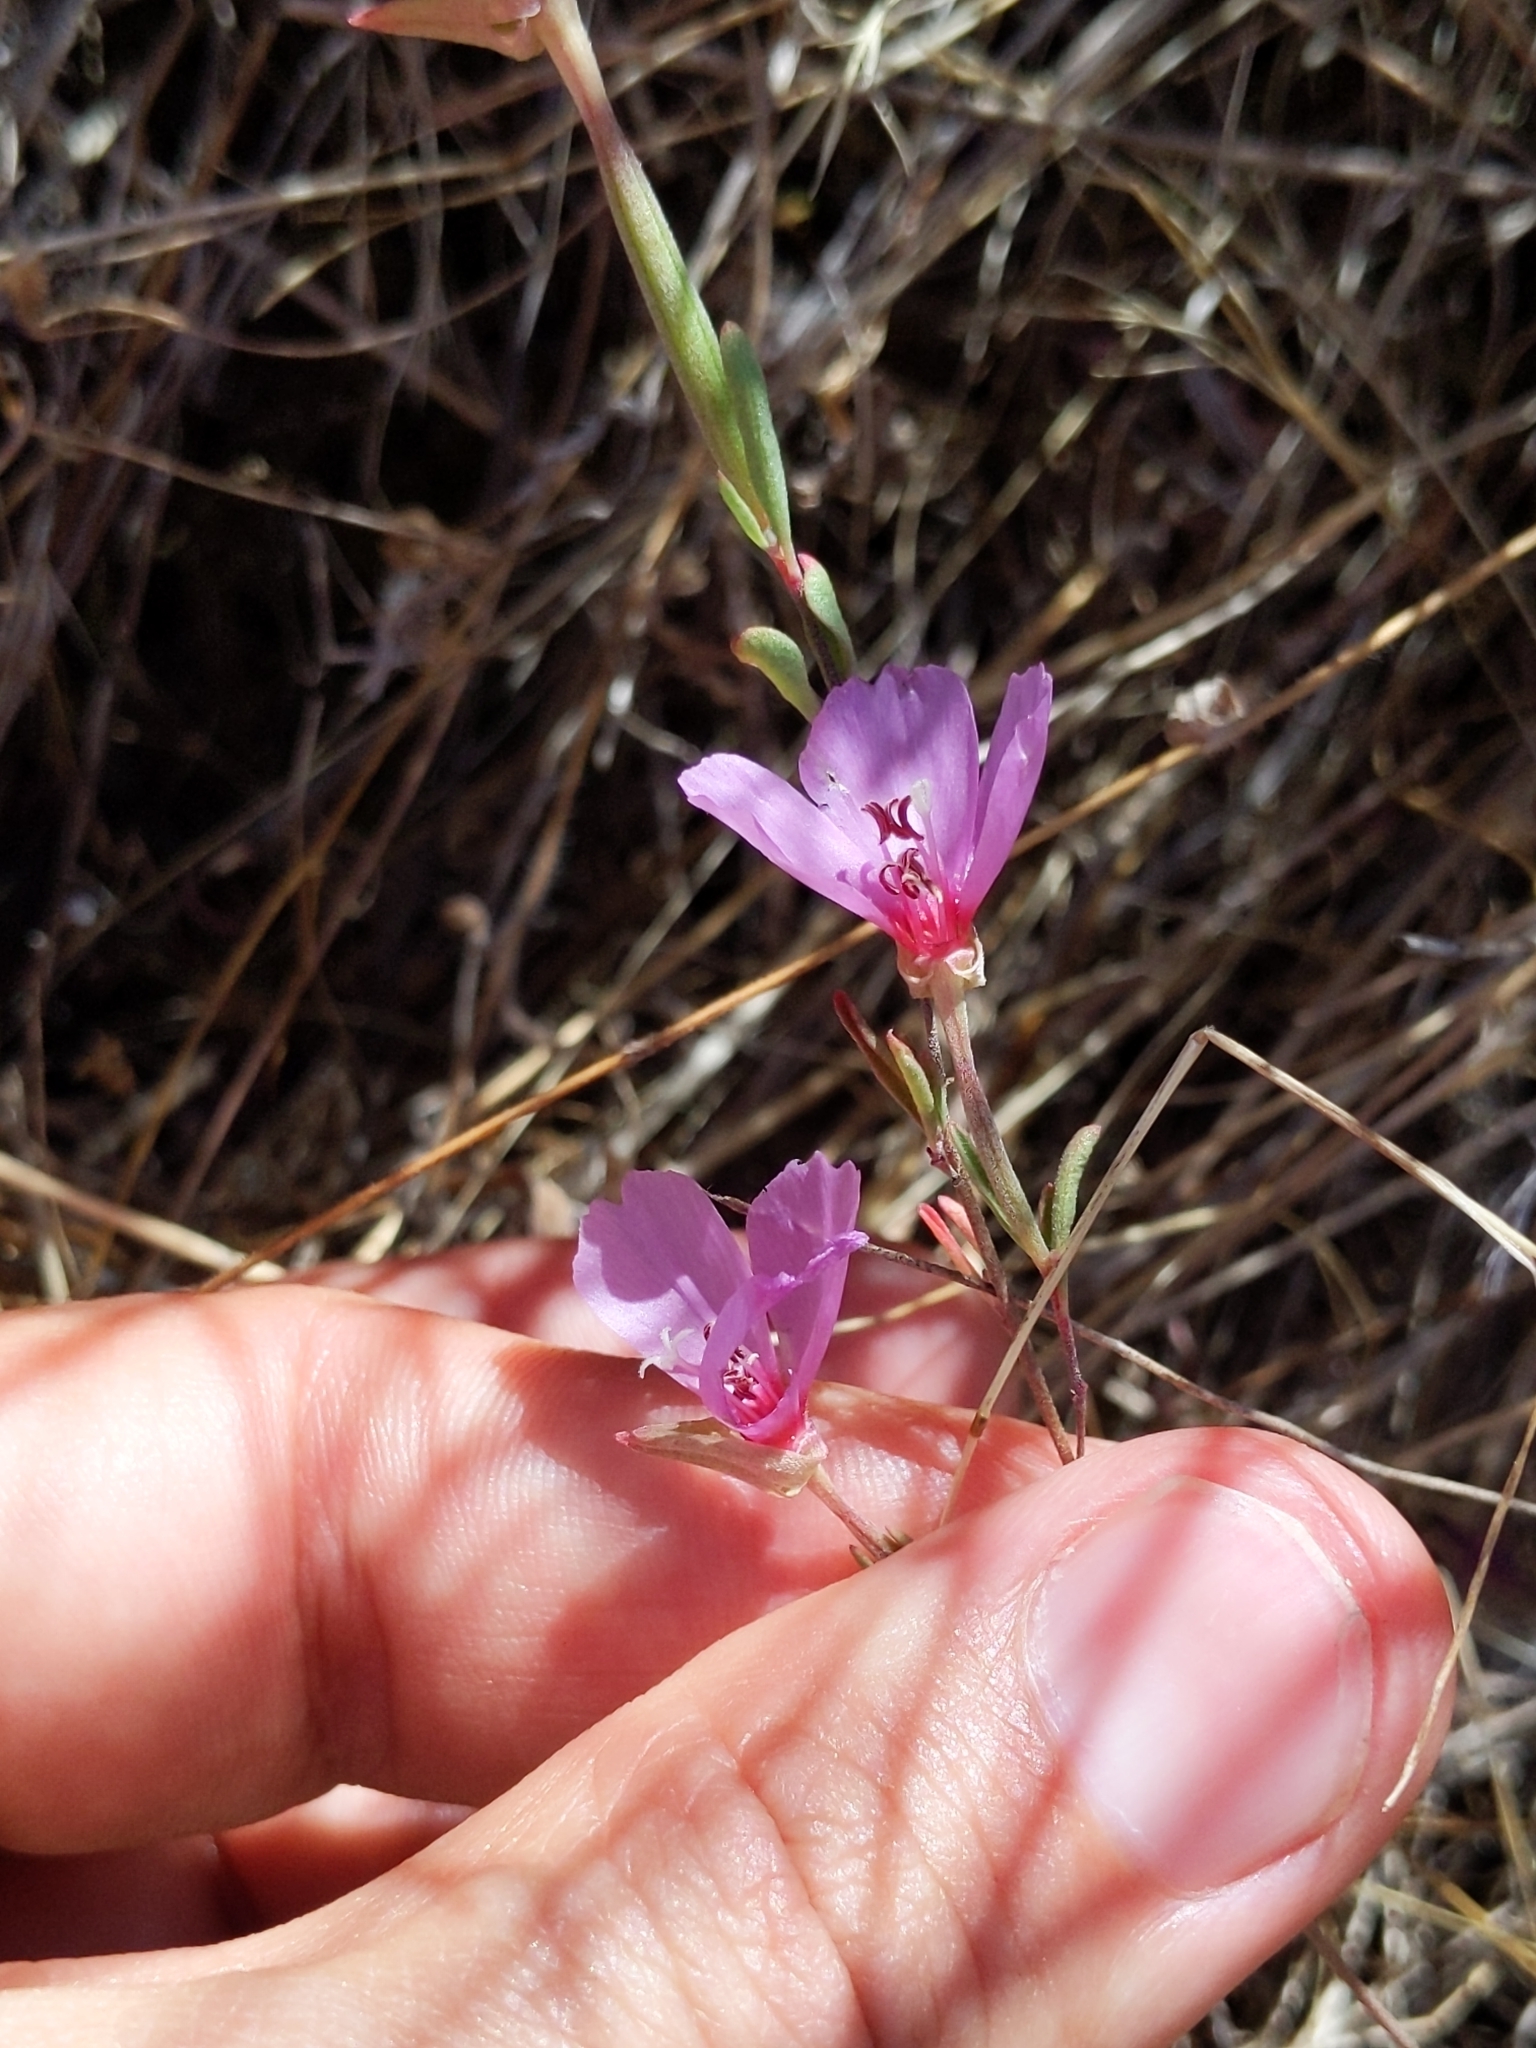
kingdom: Plantae
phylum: Tracheophyta
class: Magnoliopsida
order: Myrtales
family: Onagraceae
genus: Clarkia
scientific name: Clarkia rubicunda
